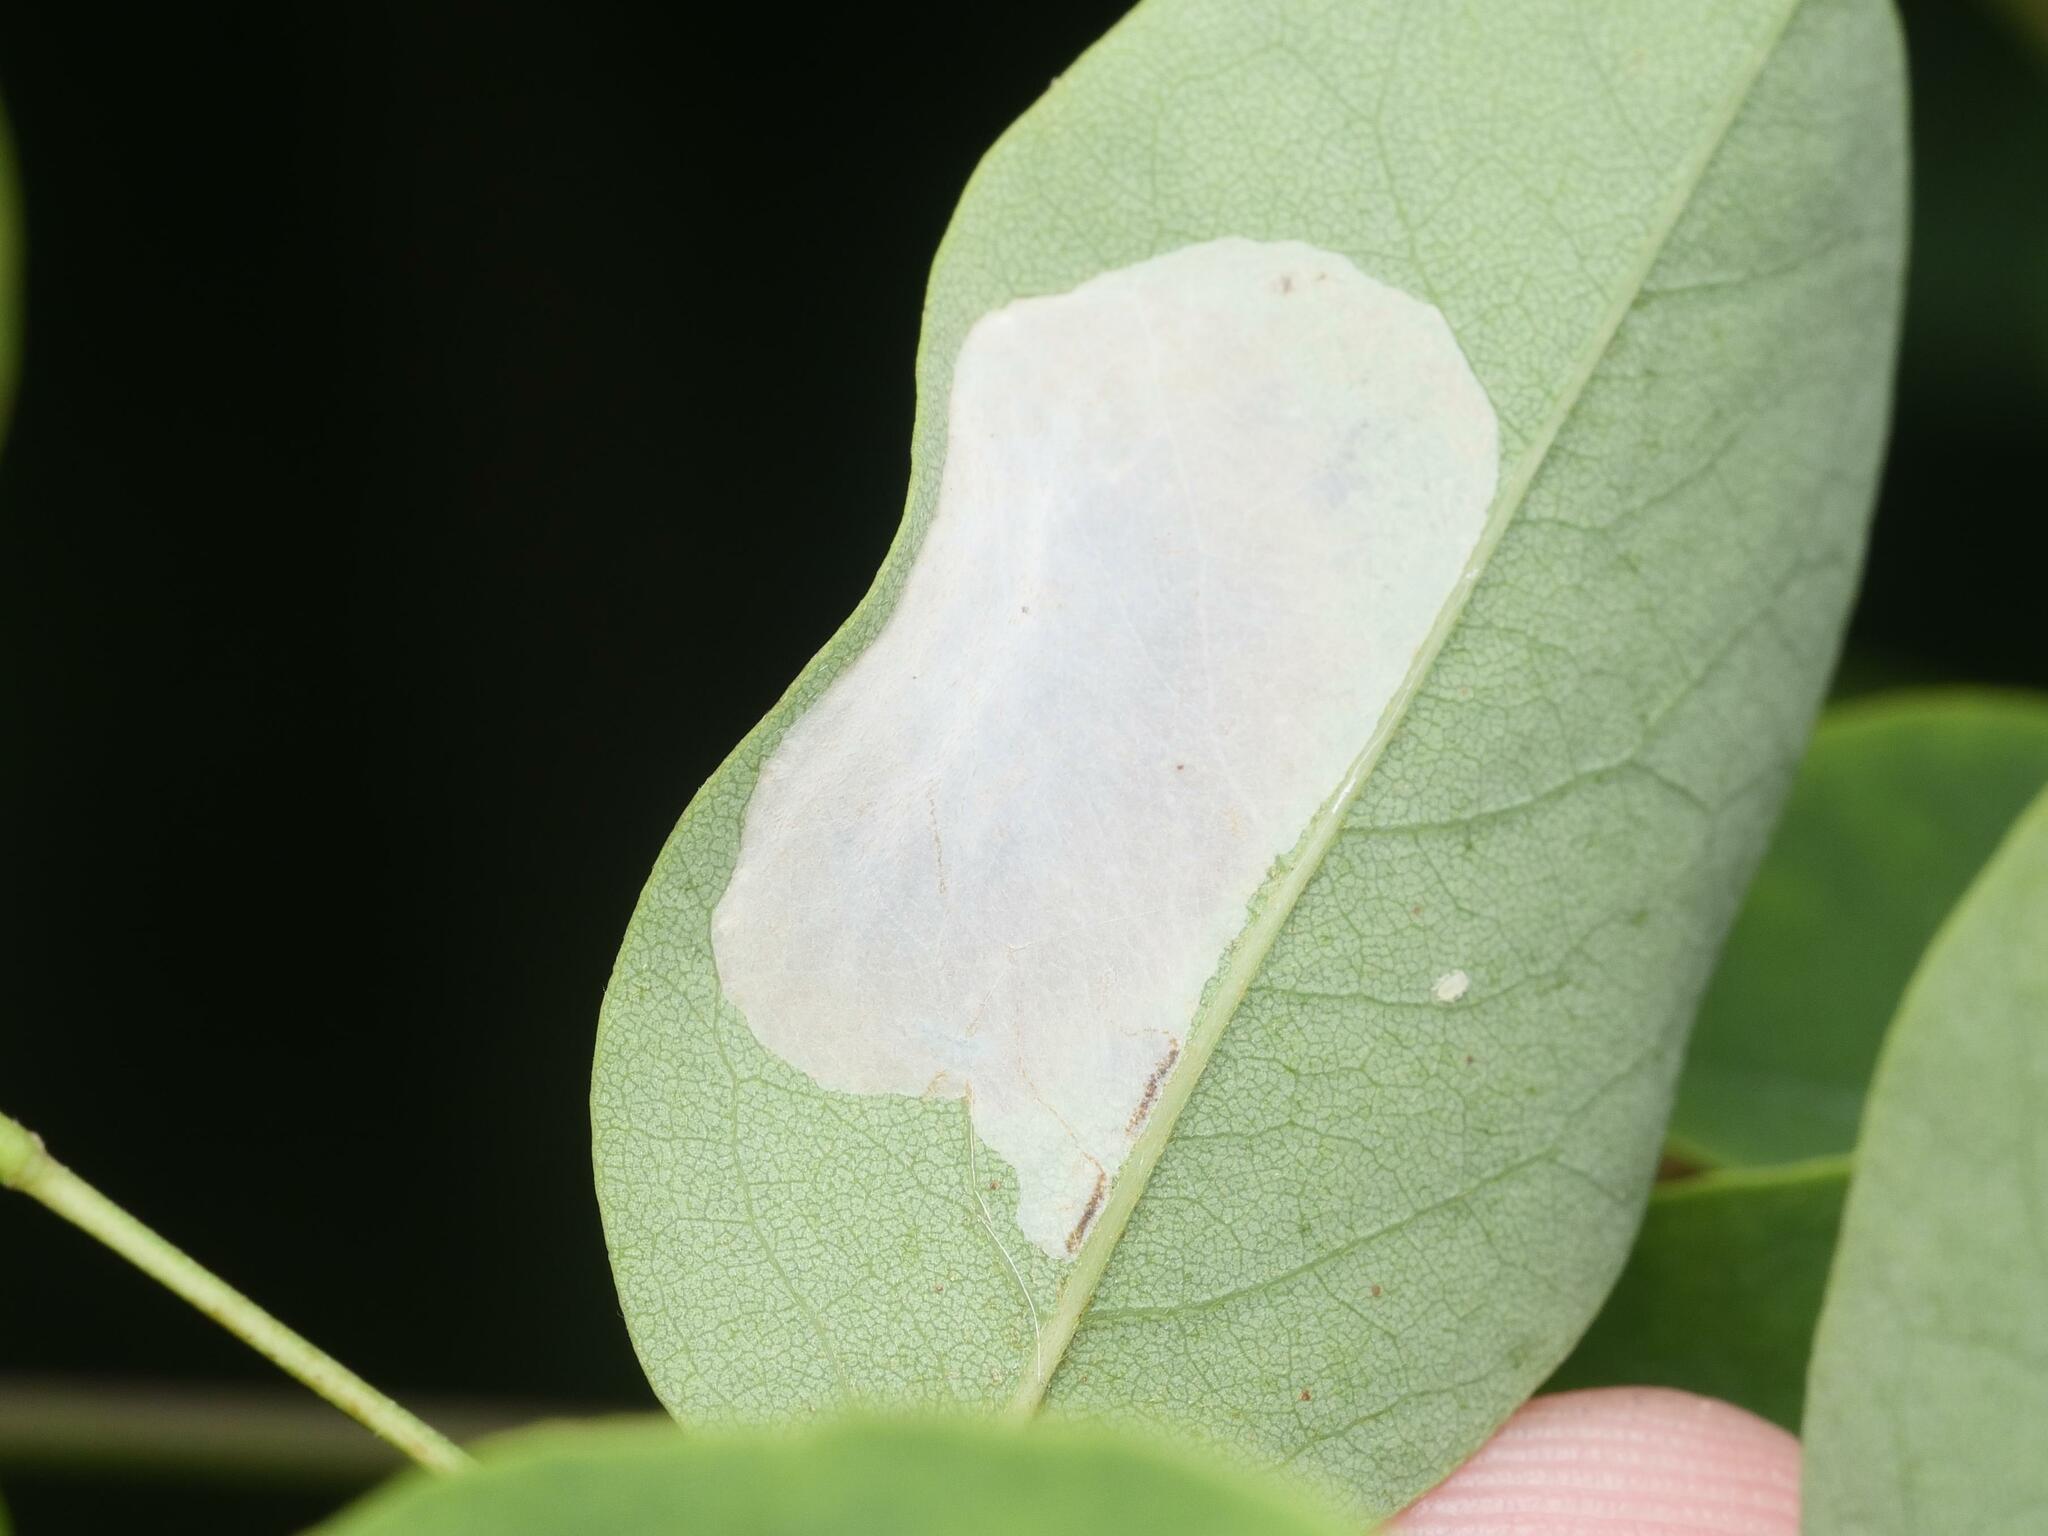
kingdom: Animalia
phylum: Arthropoda
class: Insecta
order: Lepidoptera
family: Gracillariidae
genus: Macrosaccus
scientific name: Macrosaccus robiniella
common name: Leaf blotch miner moth
